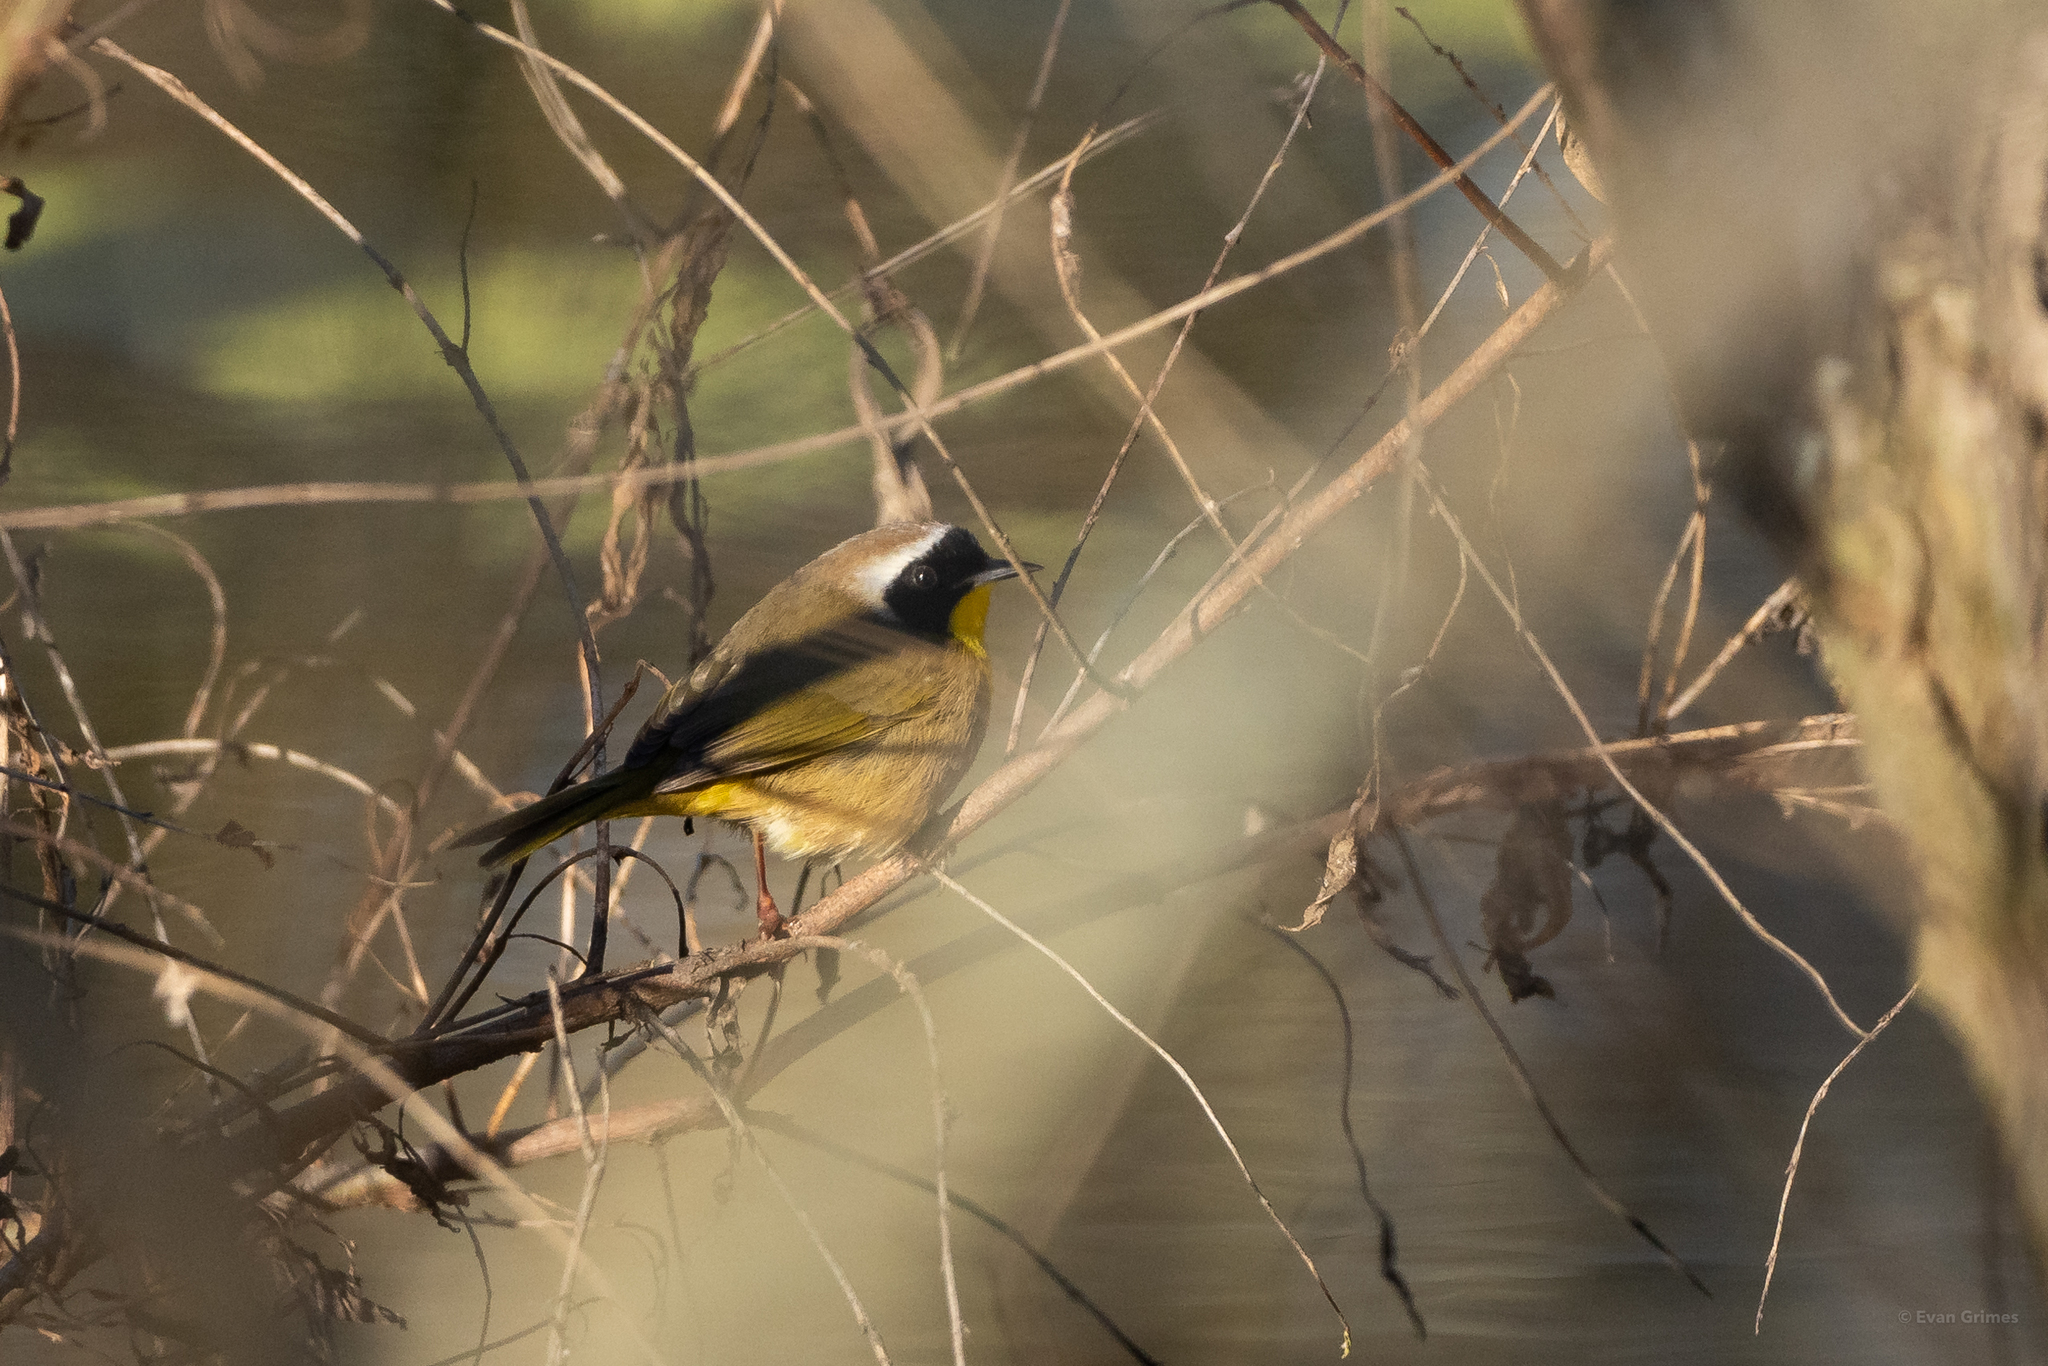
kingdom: Animalia
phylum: Chordata
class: Aves
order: Passeriformes
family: Parulidae
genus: Geothlypis
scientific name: Geothlypis trichas
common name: Common yellowthroat
